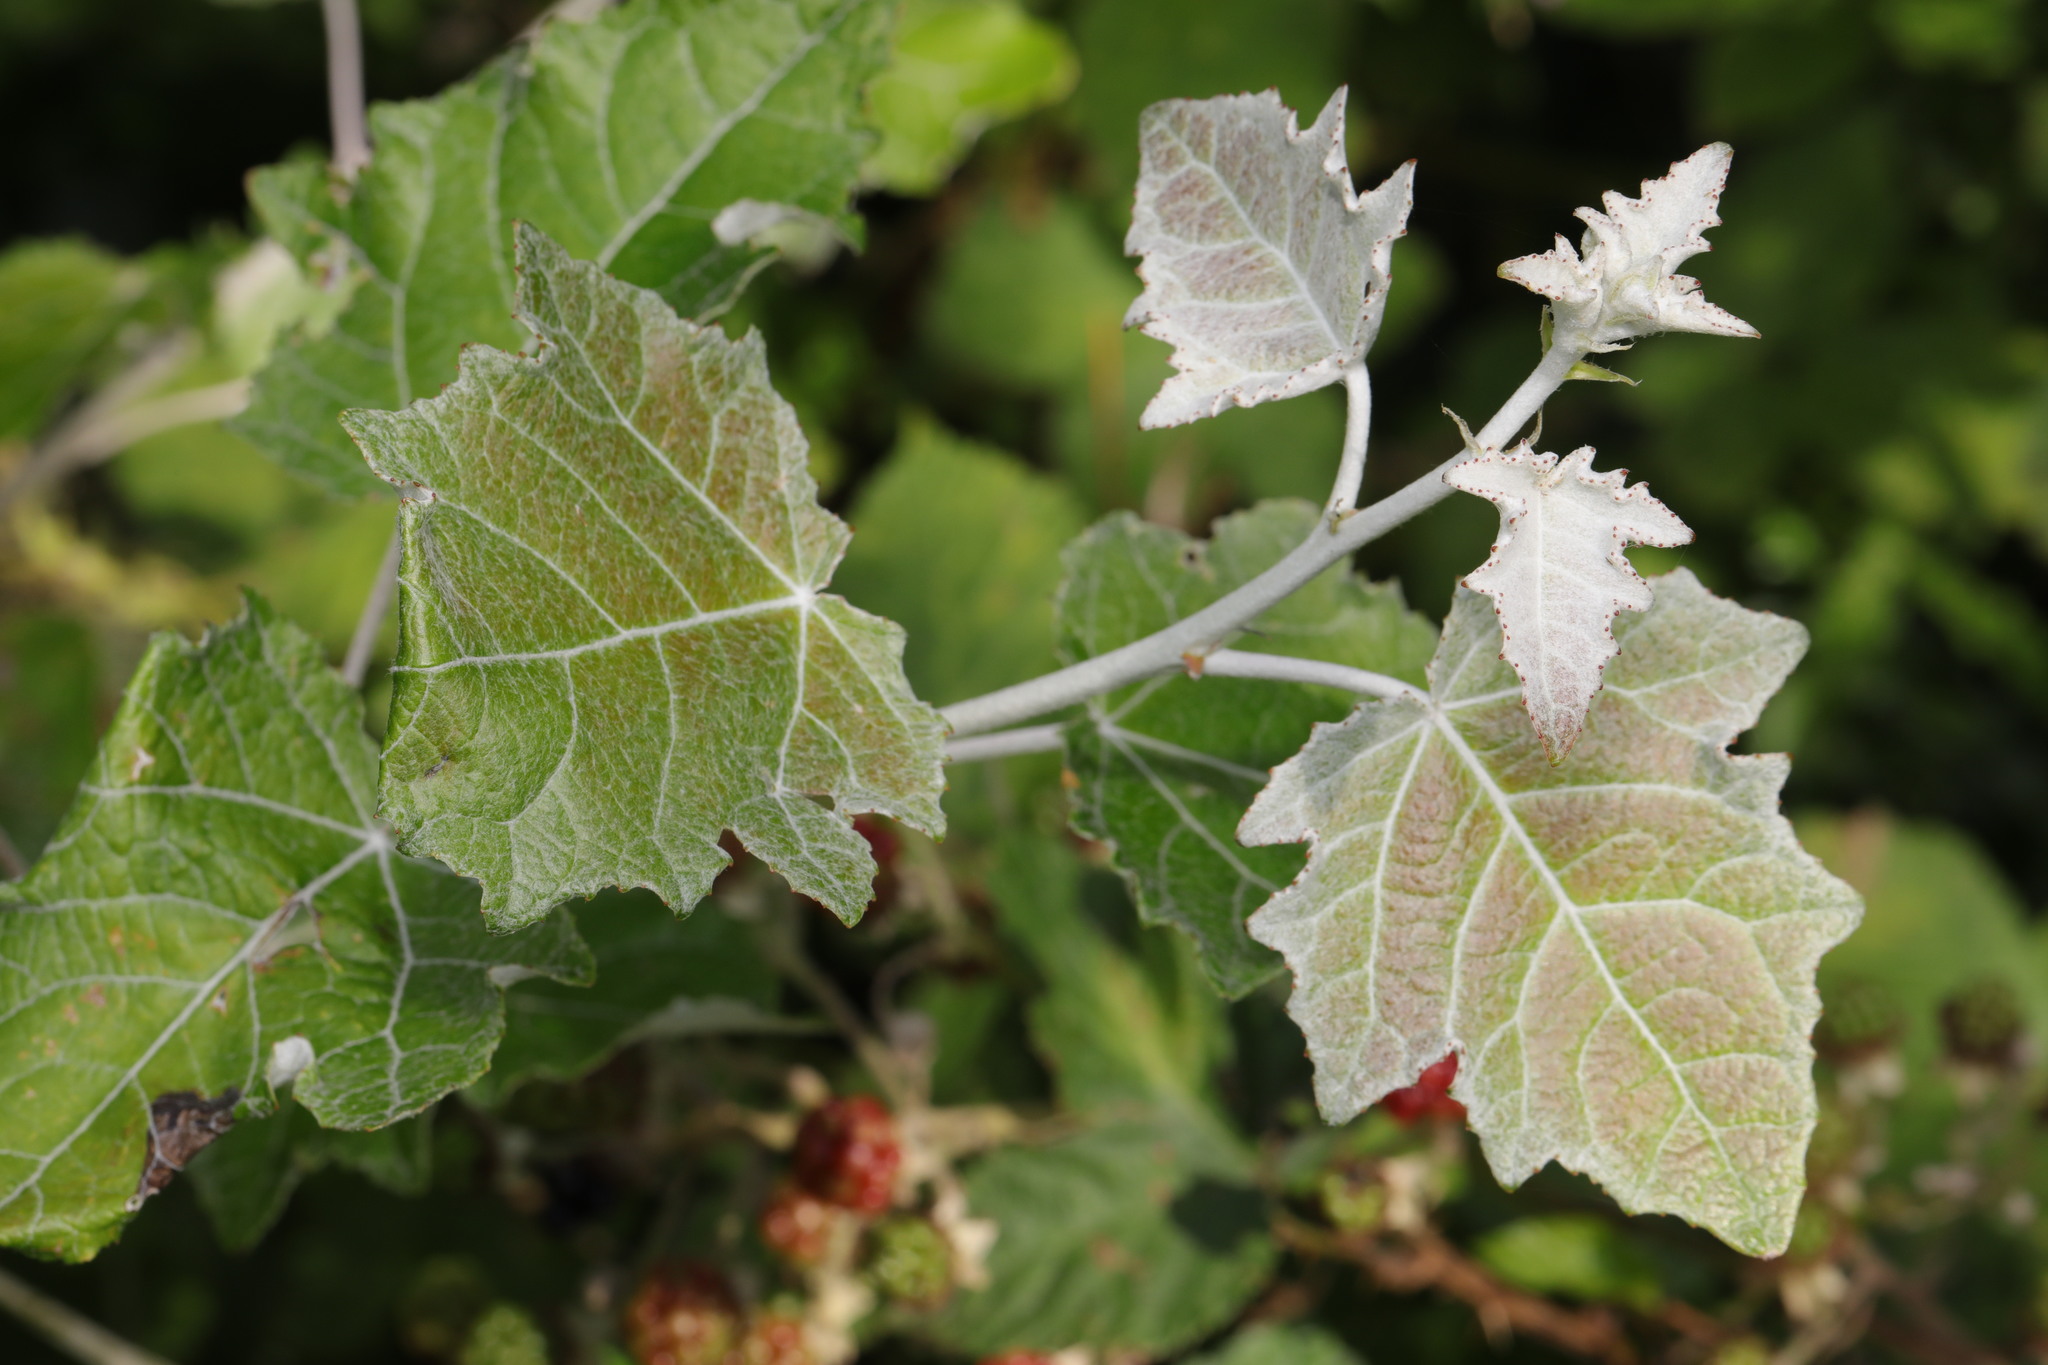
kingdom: Plantae
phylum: Tracheophyta
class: Magnoliopsida
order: Malpighiales
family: Salicaceae
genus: Populus
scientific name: Populus alba
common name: White poplar
